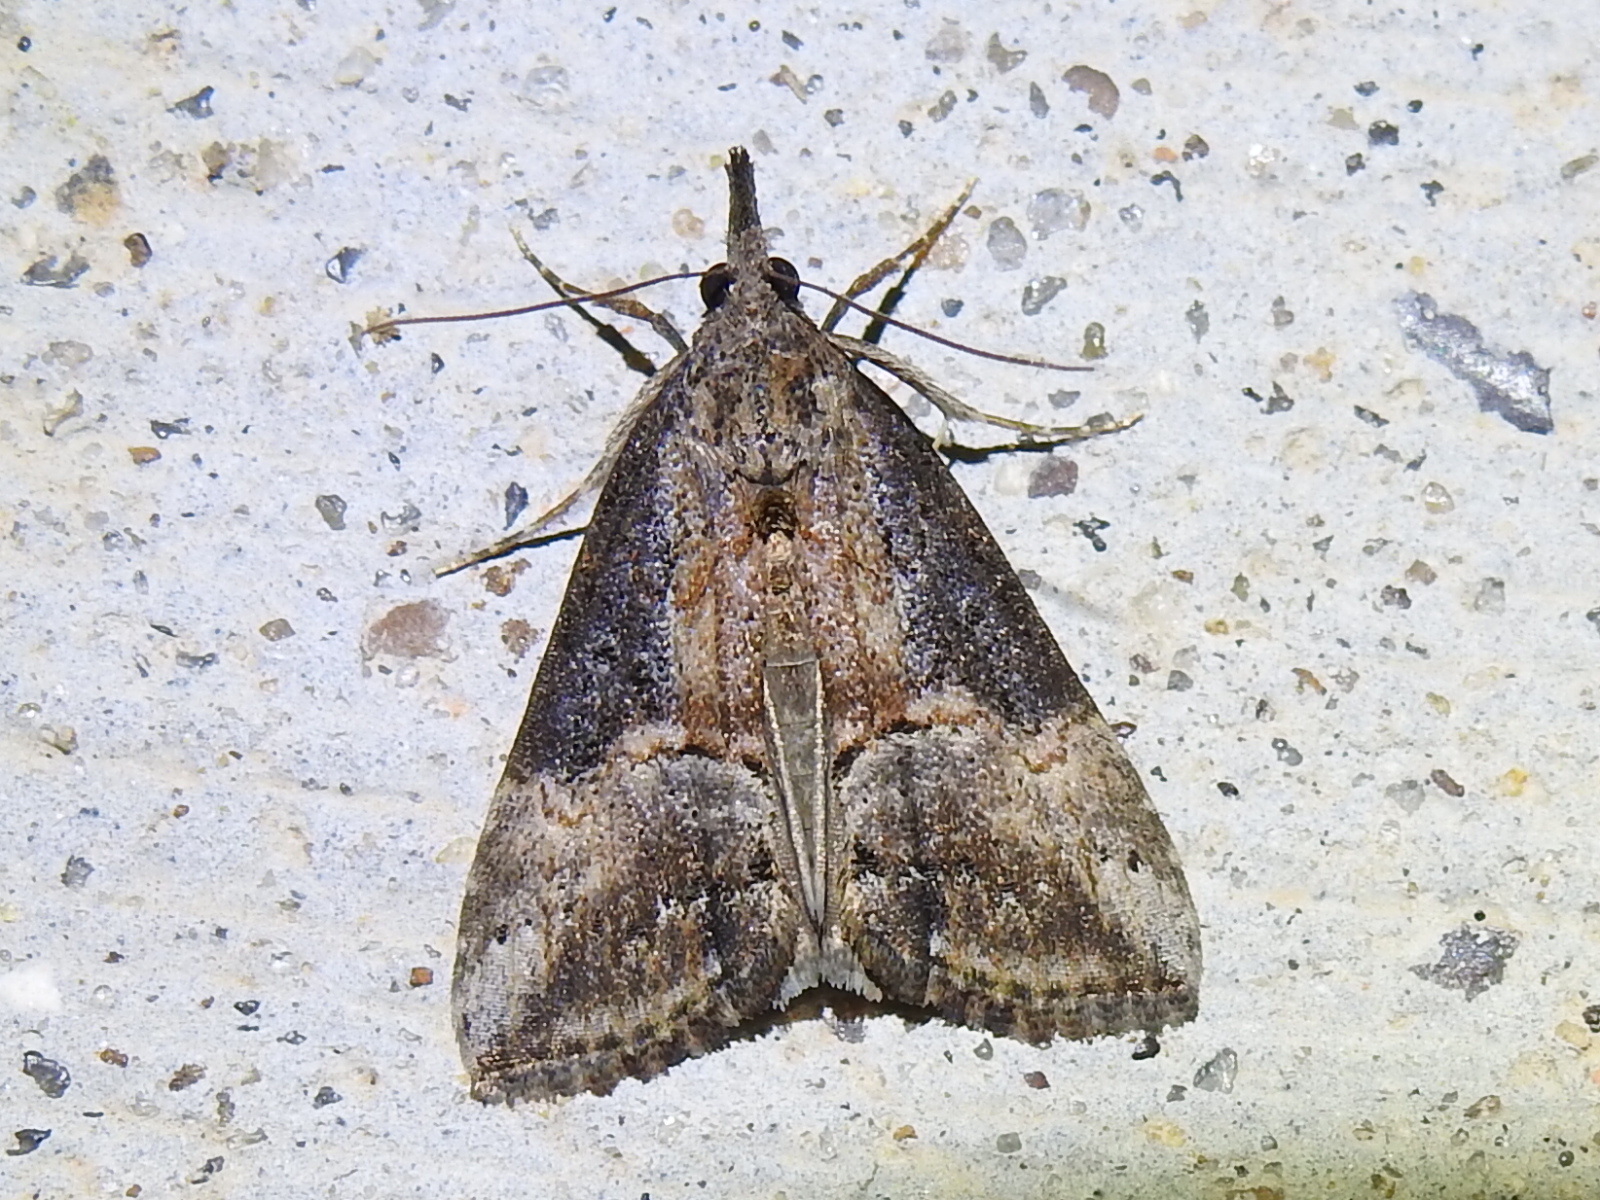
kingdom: Animalia
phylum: Arthropoda
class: Insecta
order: Lepidoptera
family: Erebidae
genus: Hypena
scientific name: Hypena scabra
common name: Green cloverworm
